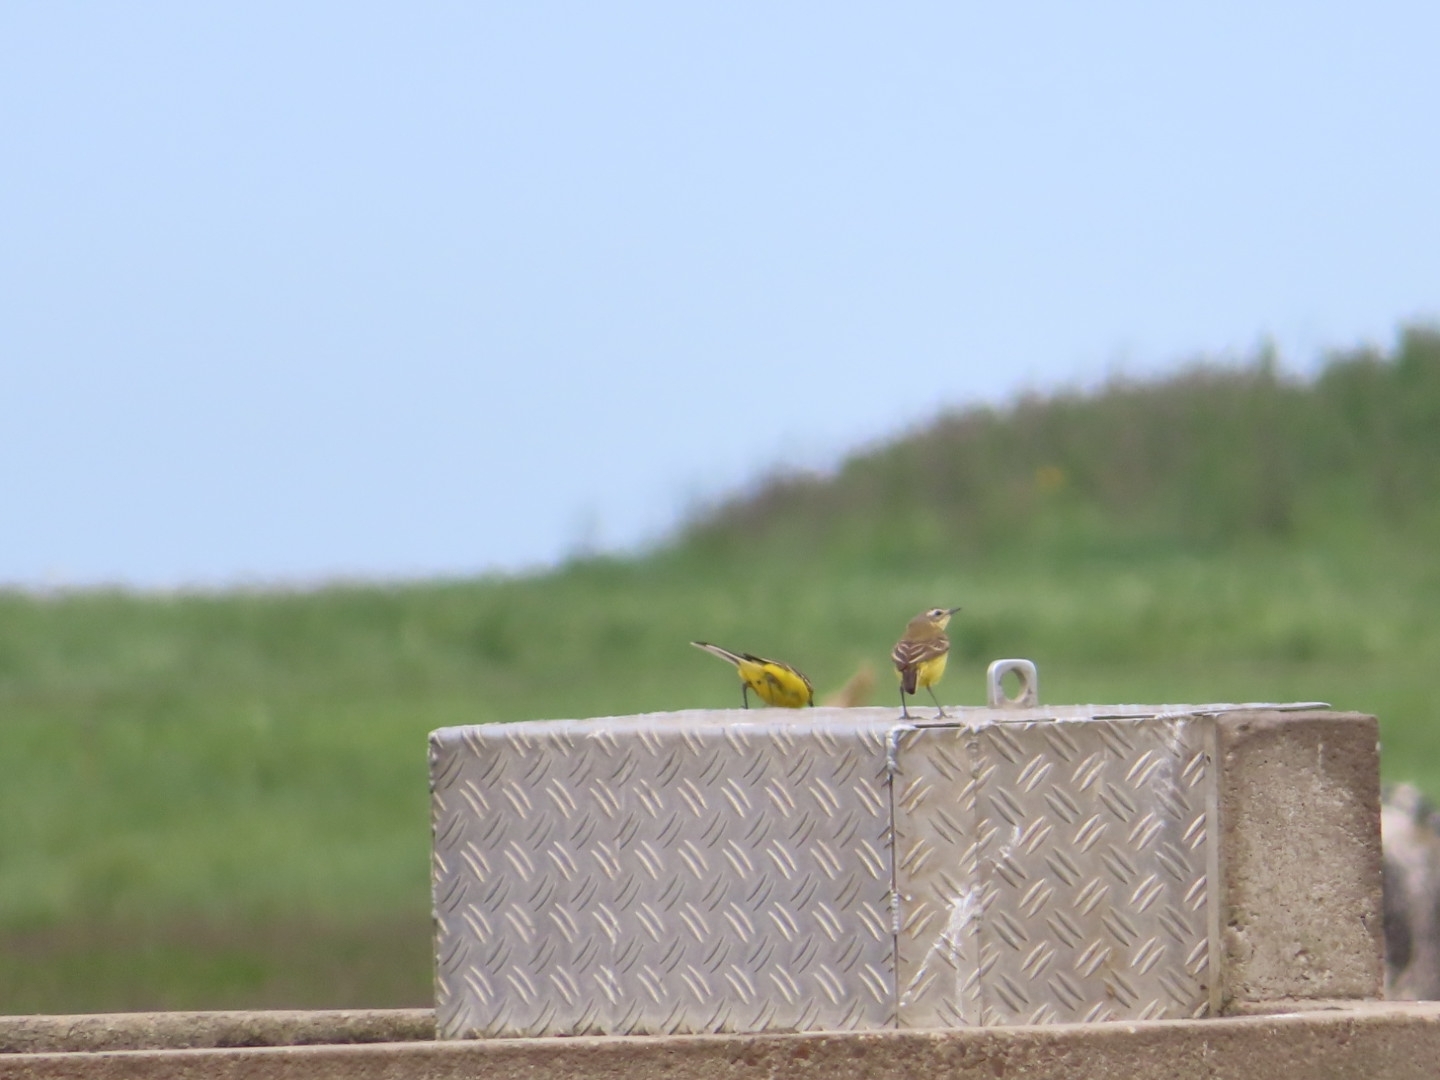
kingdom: Animalia
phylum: Chordata
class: Aves
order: Passeriformes
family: Motacillidae
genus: Motacilla
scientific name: Motacilla flava
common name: Western yellow wagtail
